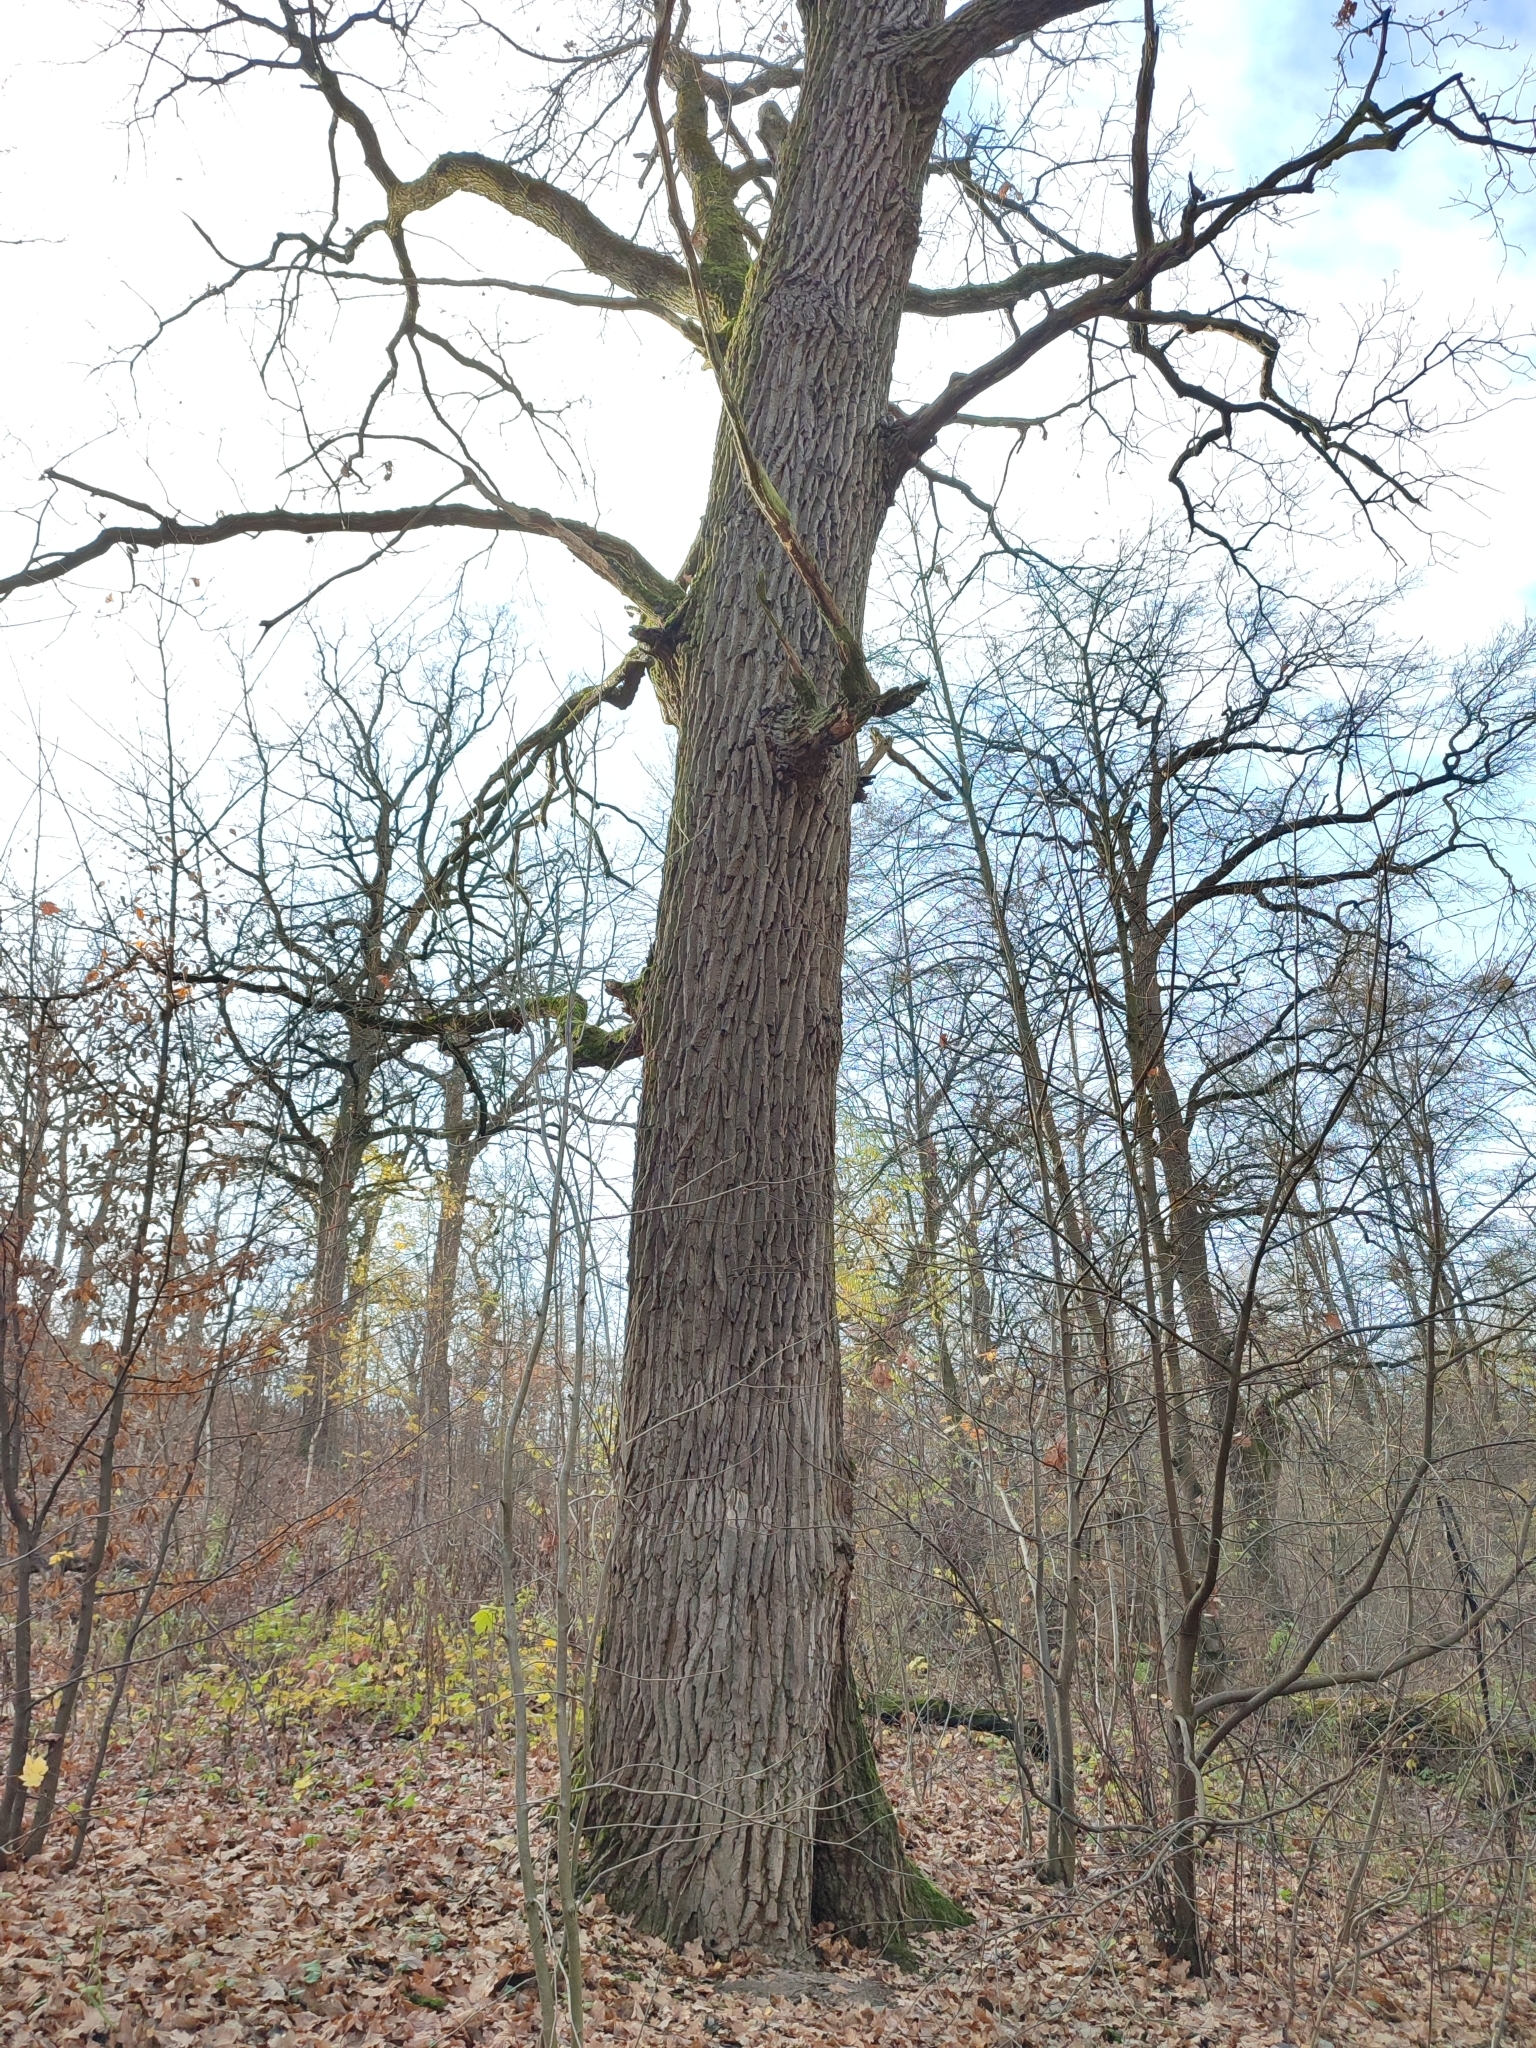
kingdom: Plantae
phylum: Tracheophyta
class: Magnoliopsida
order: Fagales
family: Fagaceae
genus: Quercus
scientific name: Quercus robur
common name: Pedunculate oak
